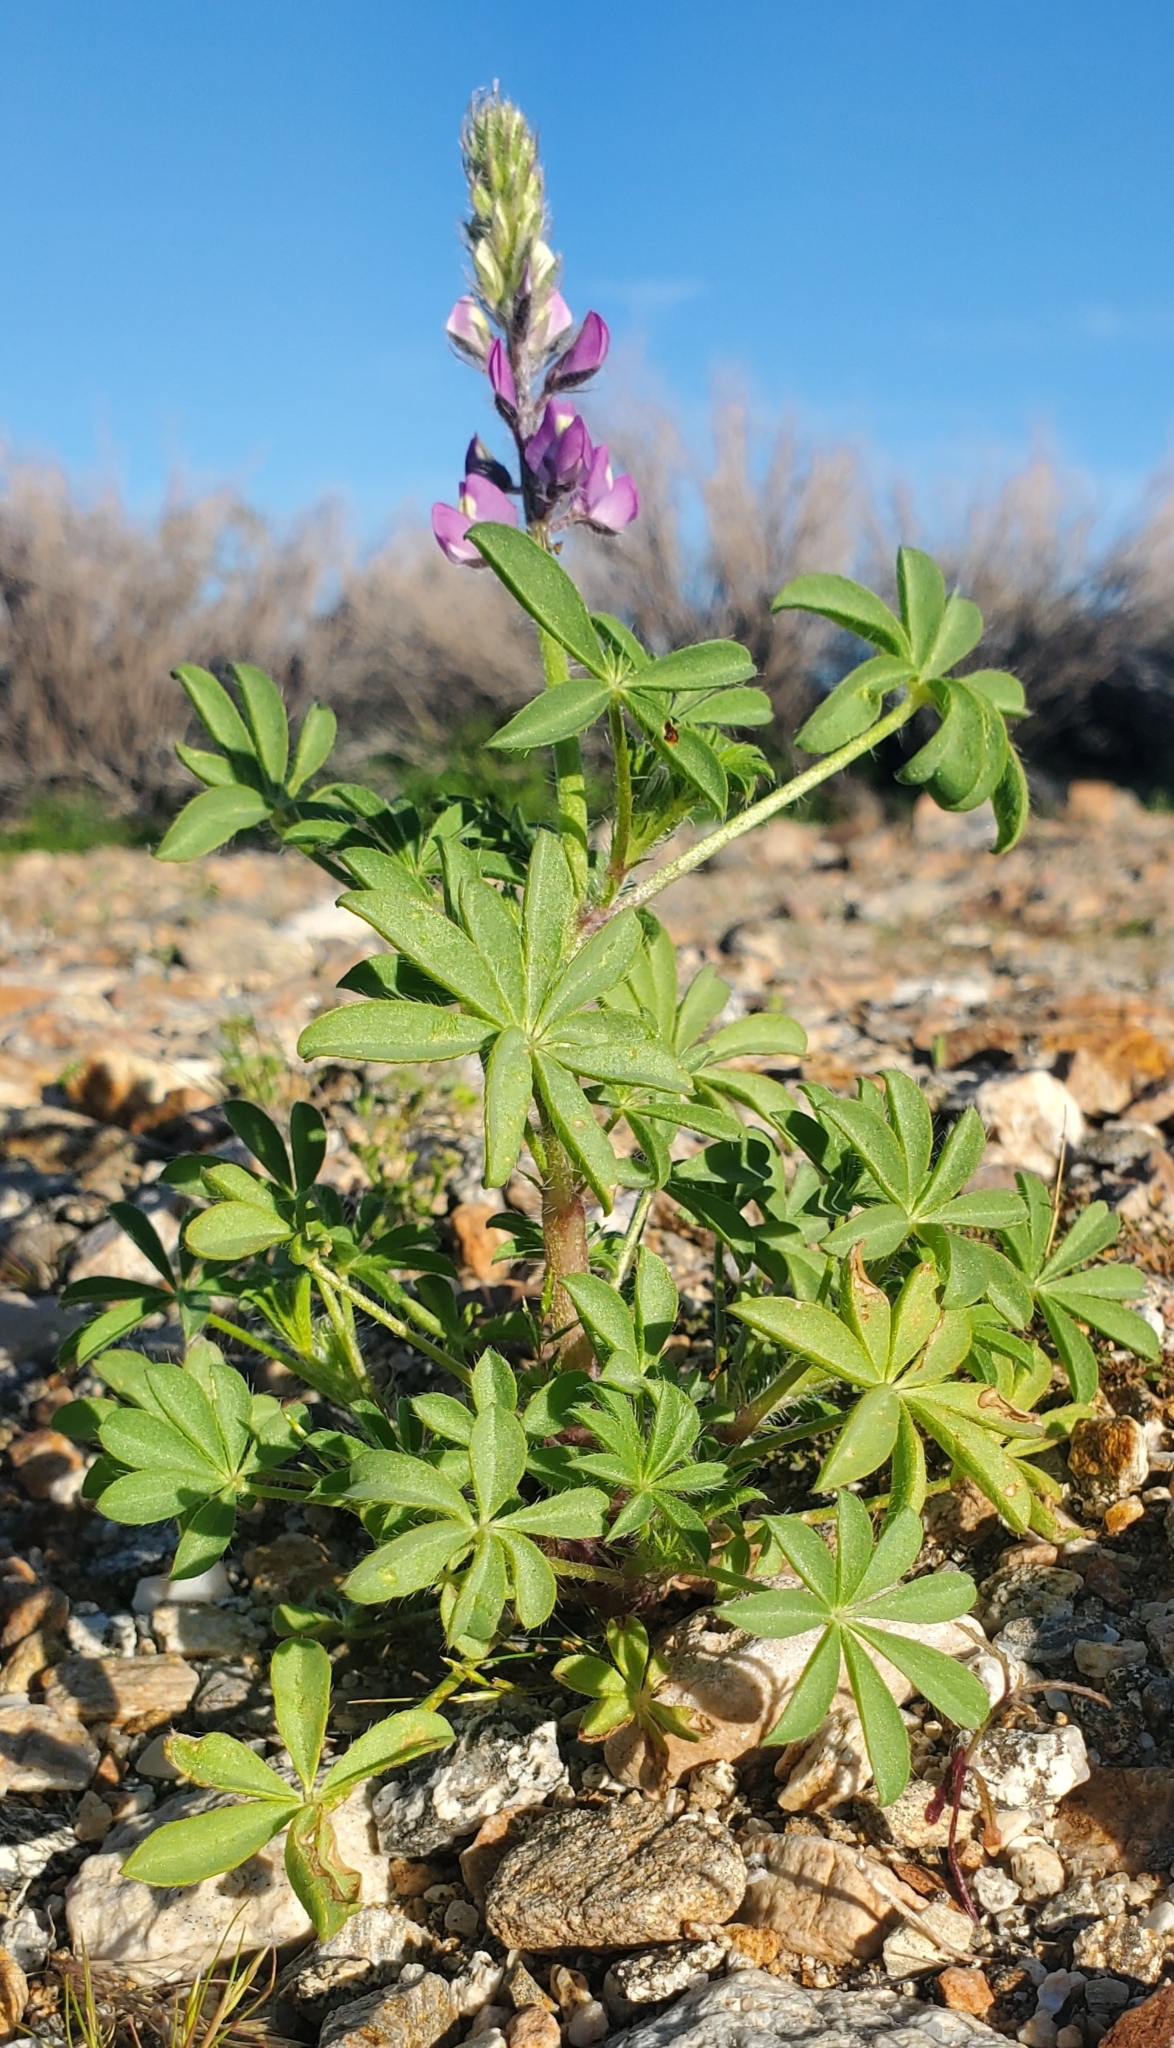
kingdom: Plantae
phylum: Tracheophyta
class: Magnoliopsida
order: Fabales
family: Fabaceae
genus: Lupinus
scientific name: Lupinus arizonicus
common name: Arizona lupine
